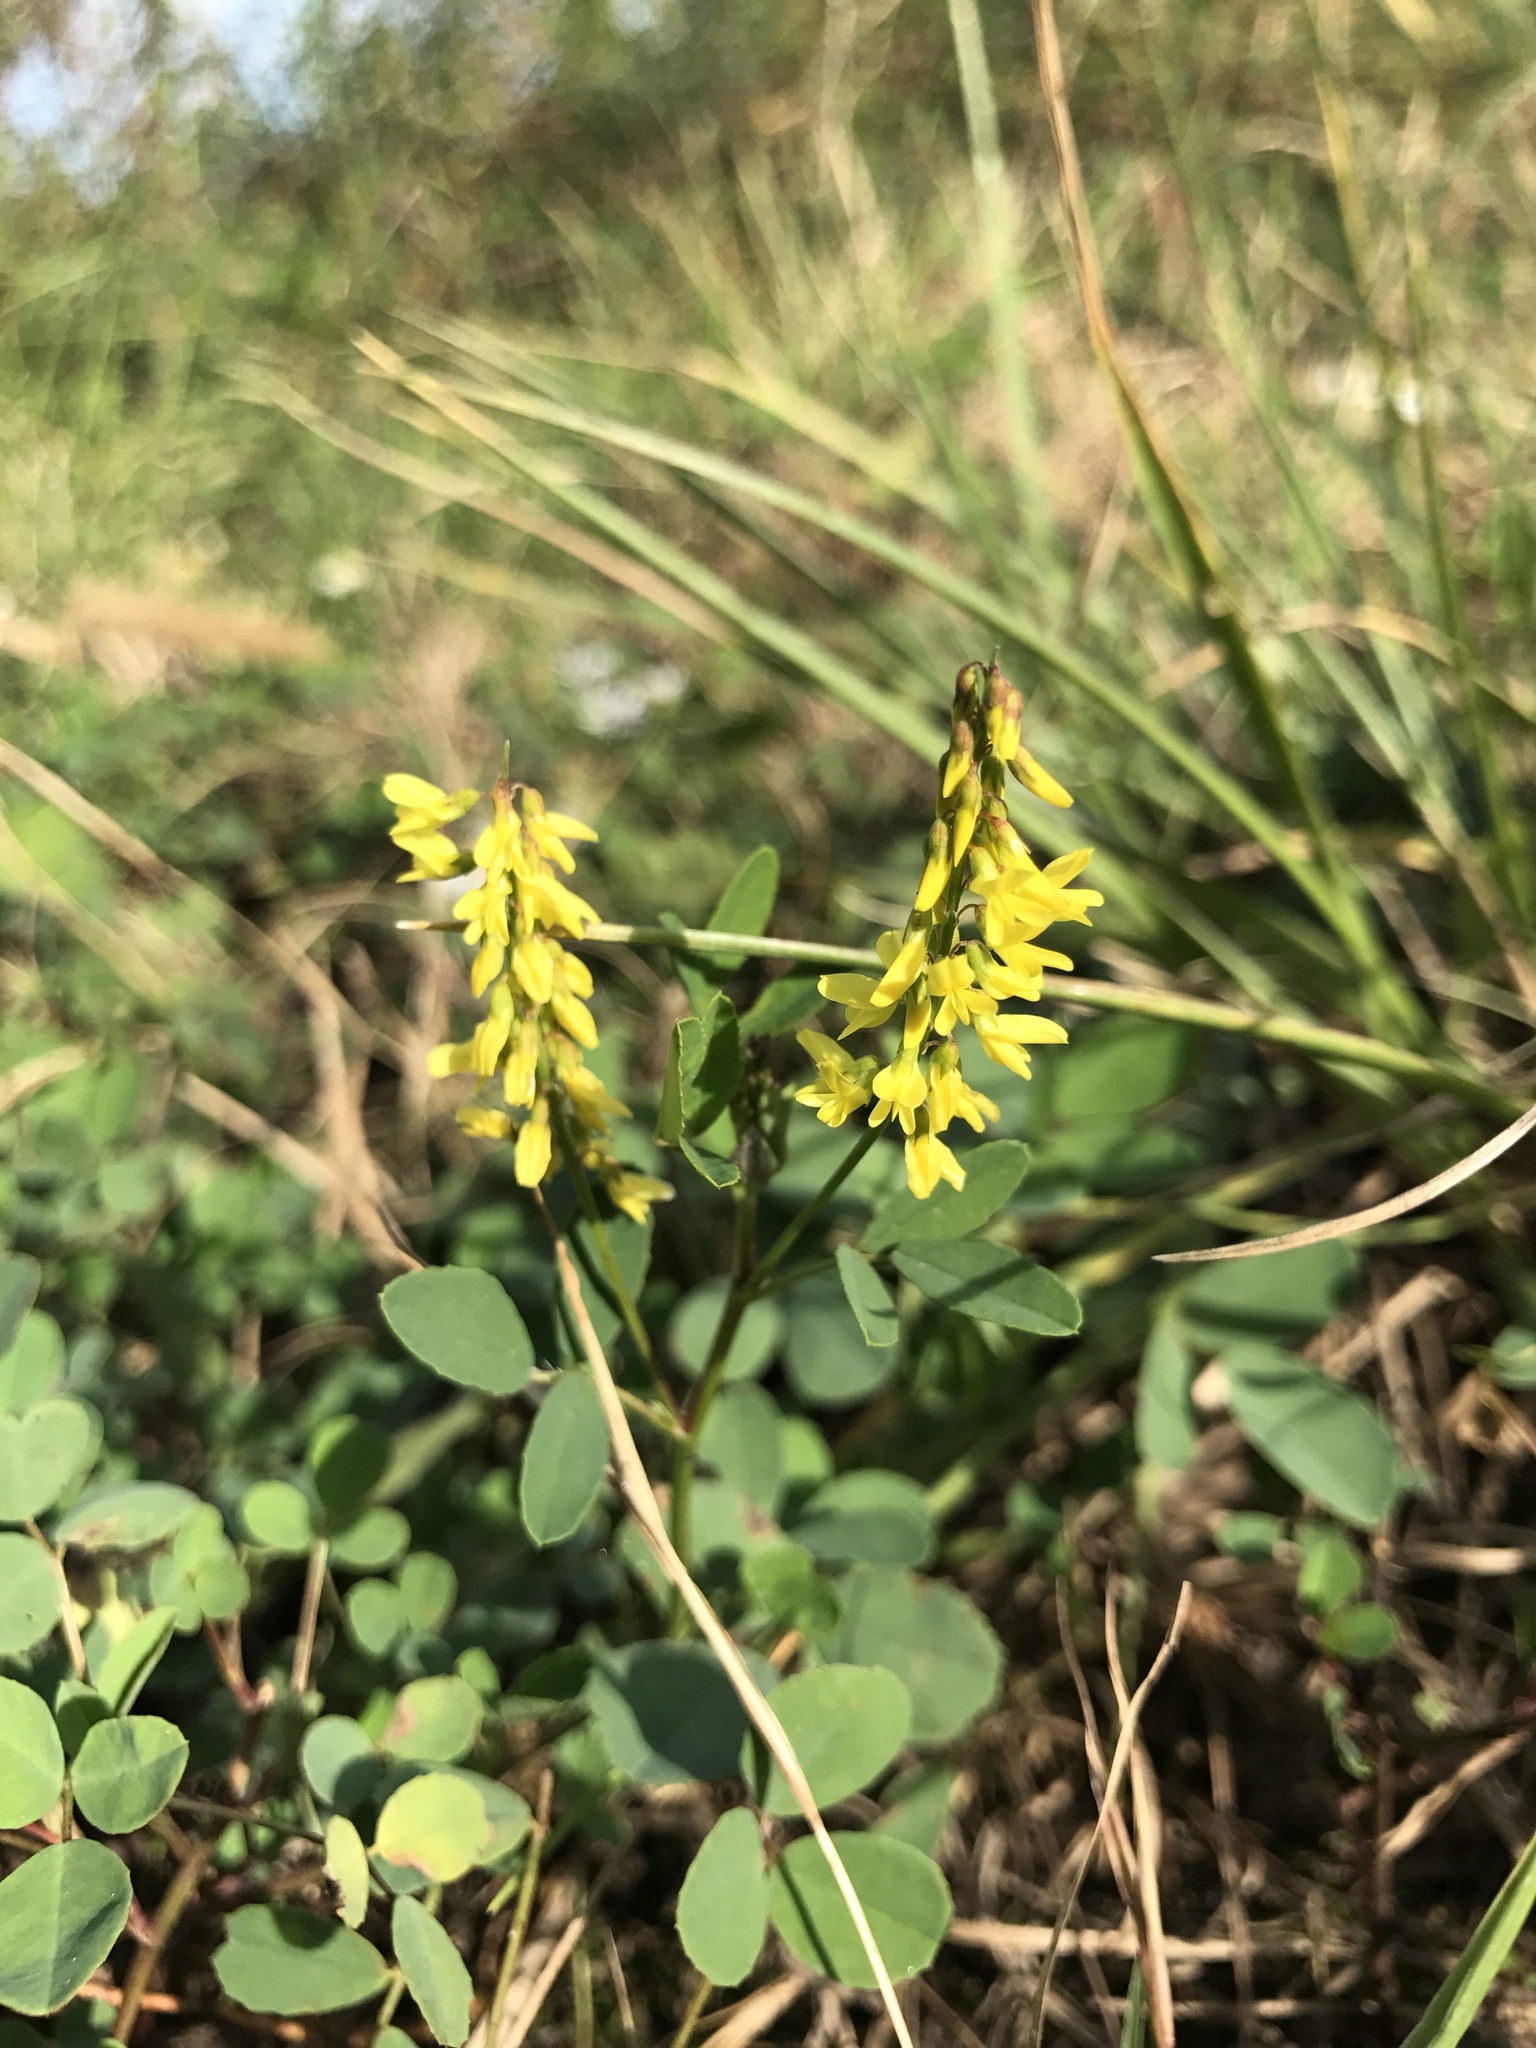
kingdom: Plantae
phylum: Tracheophyta
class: Magnoliopsida
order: Fabales
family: Fabaceae
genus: Melilotus
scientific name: Melilotus officinalis
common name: Sweetclover
